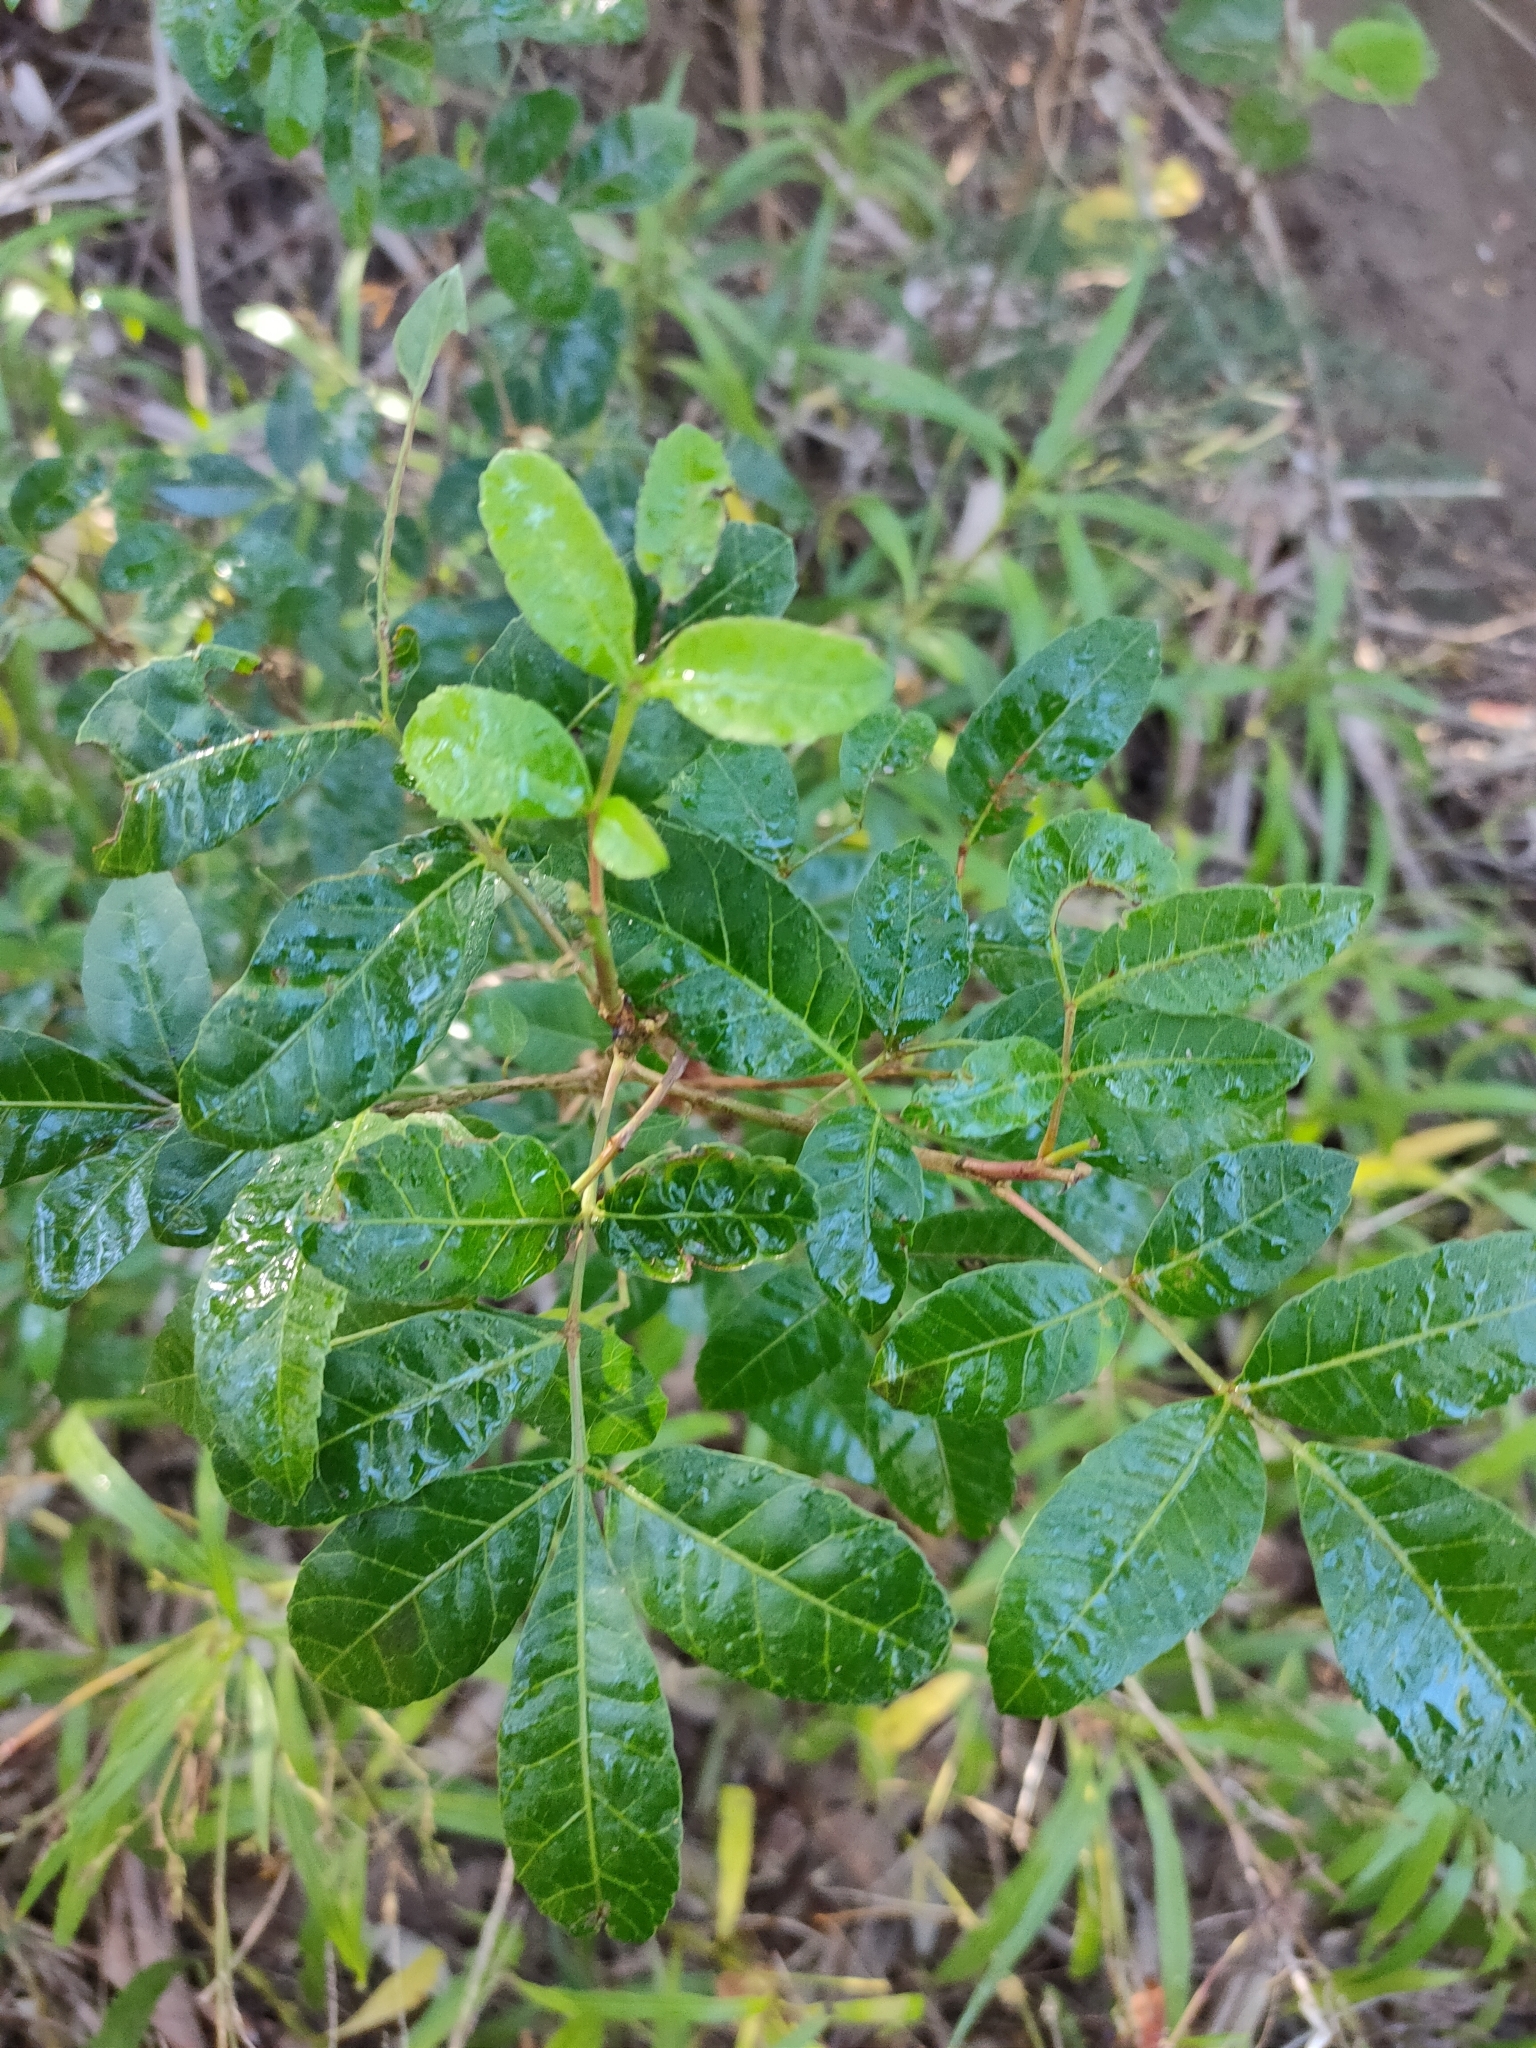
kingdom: Plantae
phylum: Tracheophyta
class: Magnoliopsida
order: Sapindales
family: Anacardiaceae
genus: Schinus
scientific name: Schinus terebinthifolia
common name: Brazilian peppertree
